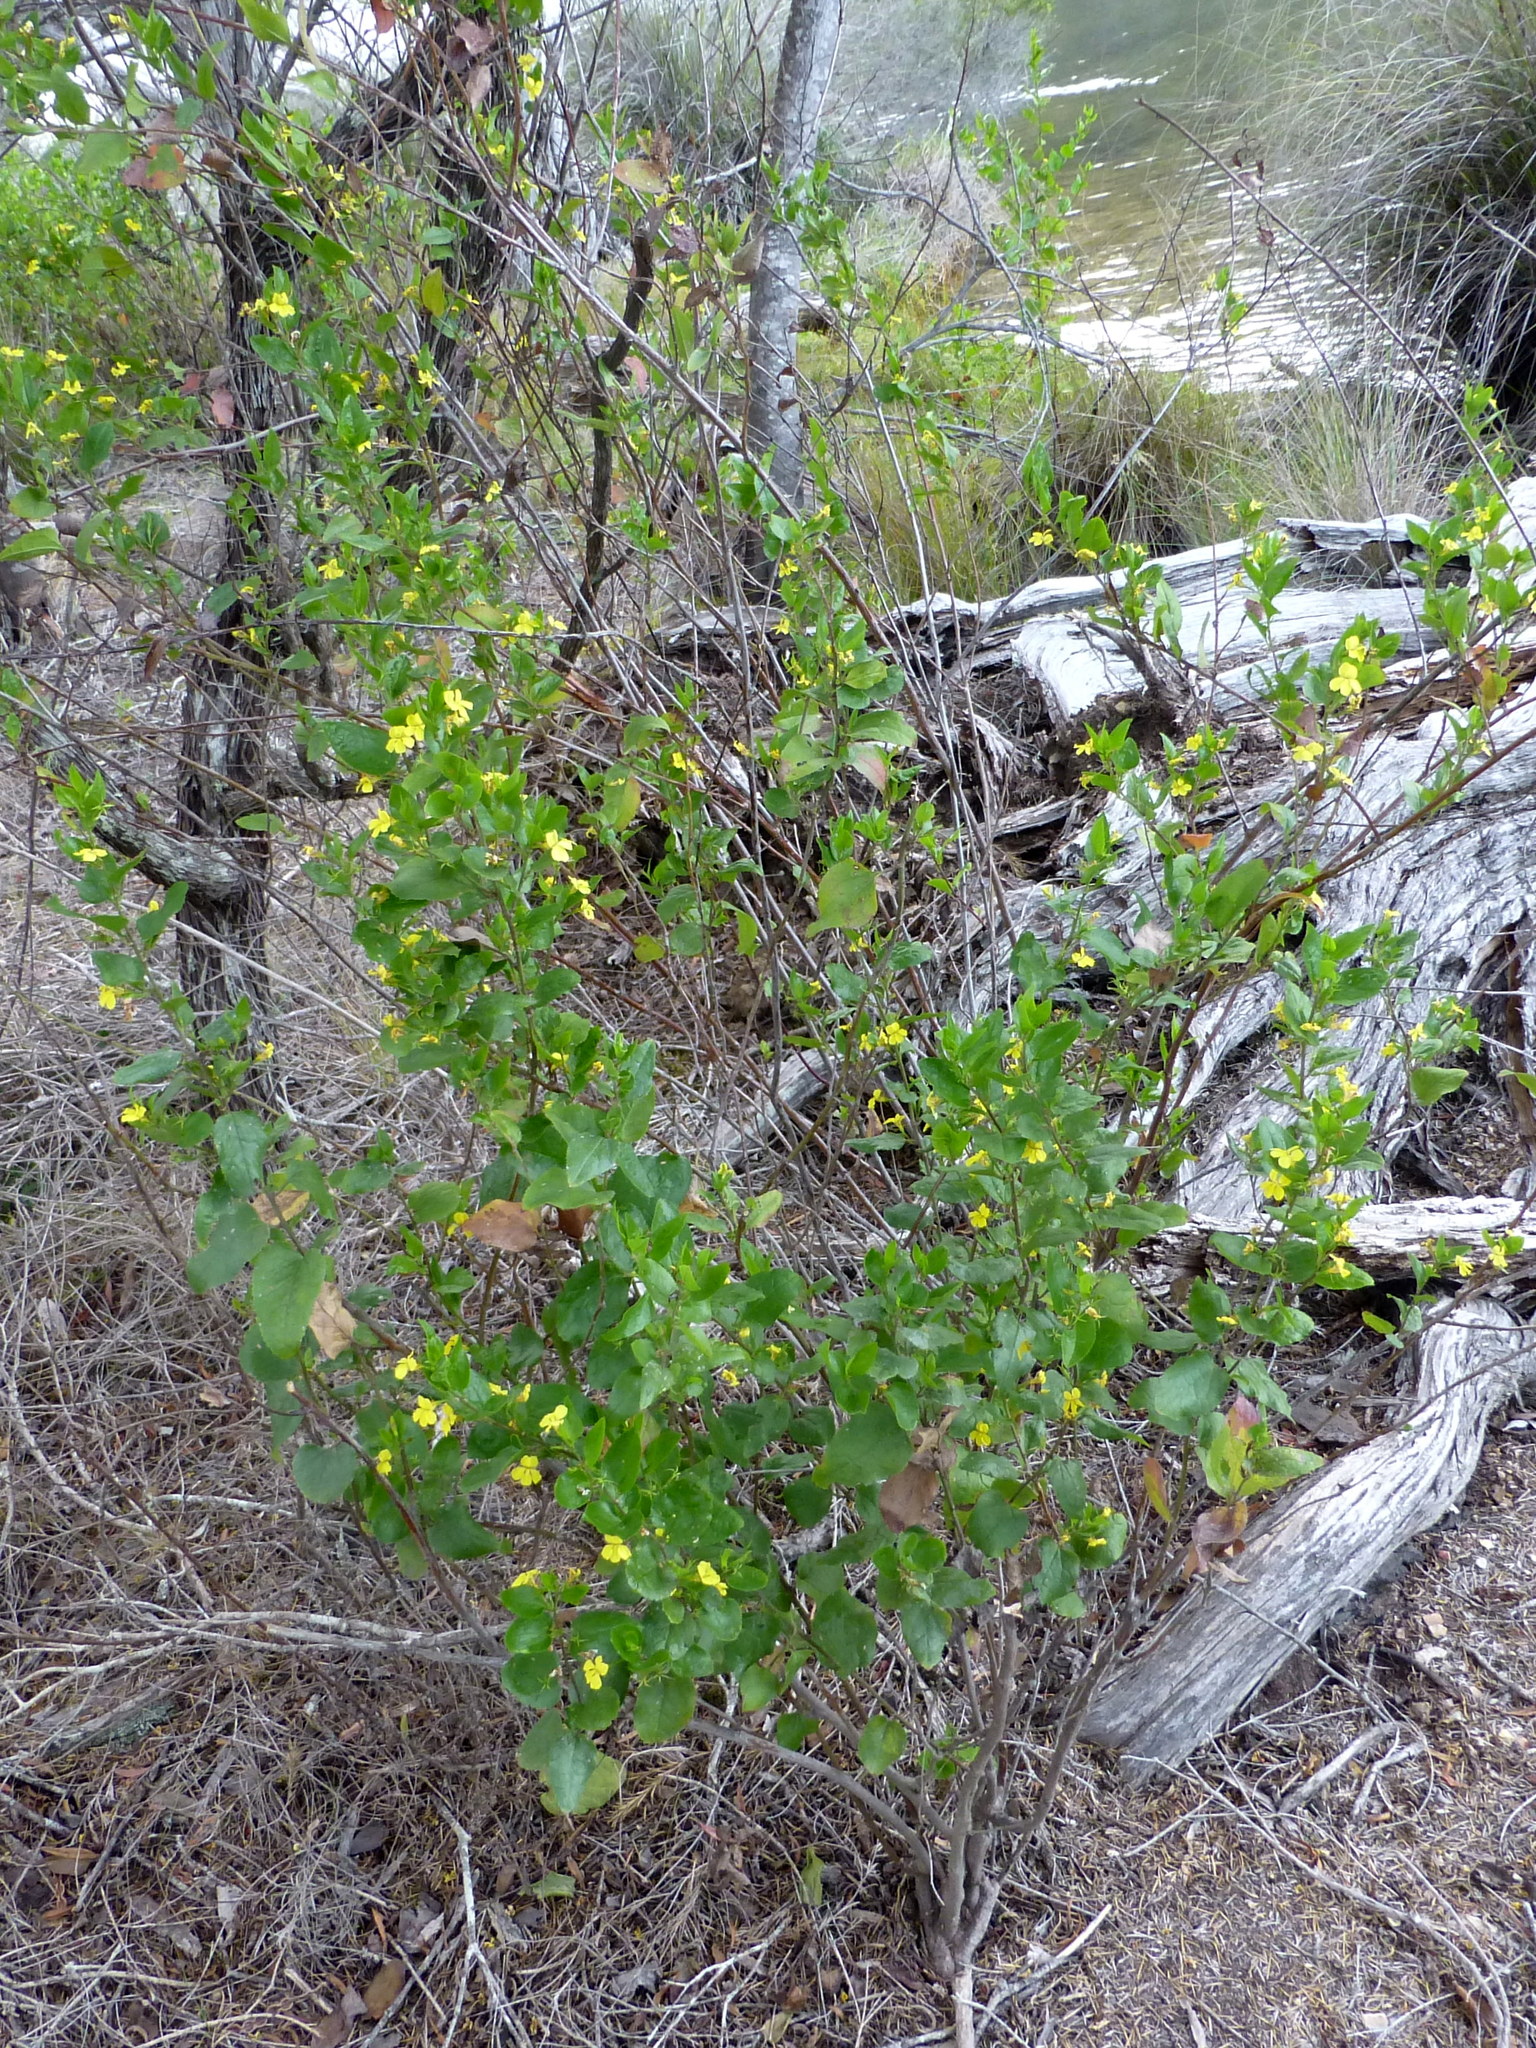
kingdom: Plantae
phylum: Tracheophyta
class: Magnoliopsida
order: Asterales
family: Goodeniaceae
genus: Goodenia
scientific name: Goodenia ovata
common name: Hop goodenia
